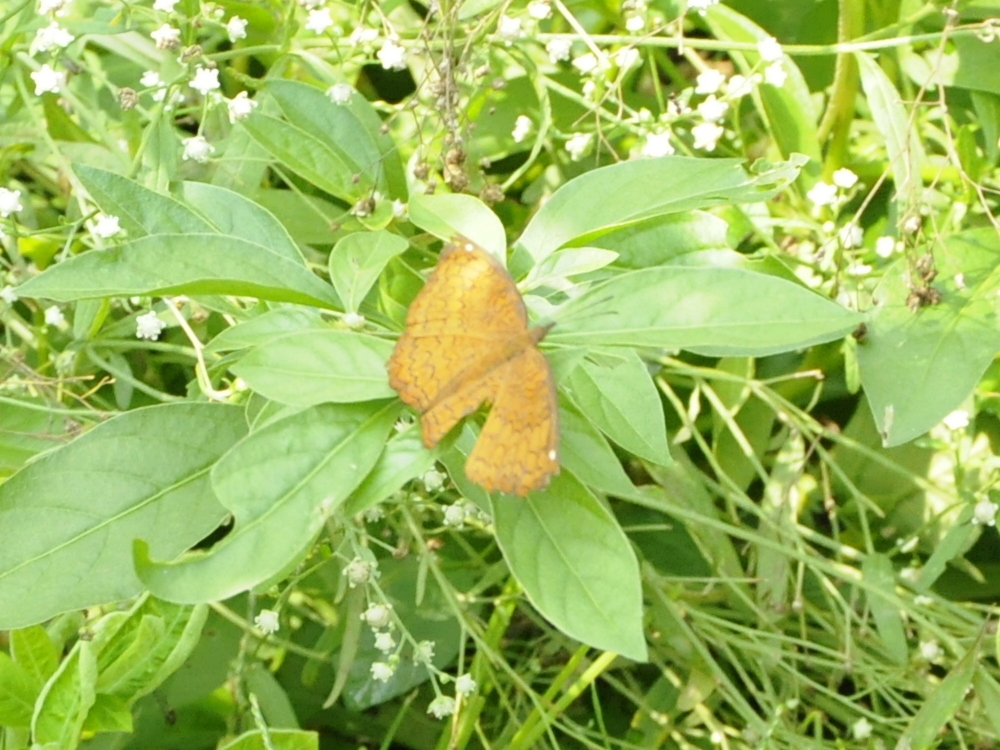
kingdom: Animalia
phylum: Arthropoda
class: Insecta
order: Lepidoptera
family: Nymphalidae
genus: Ariadne
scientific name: Ariadne merione
